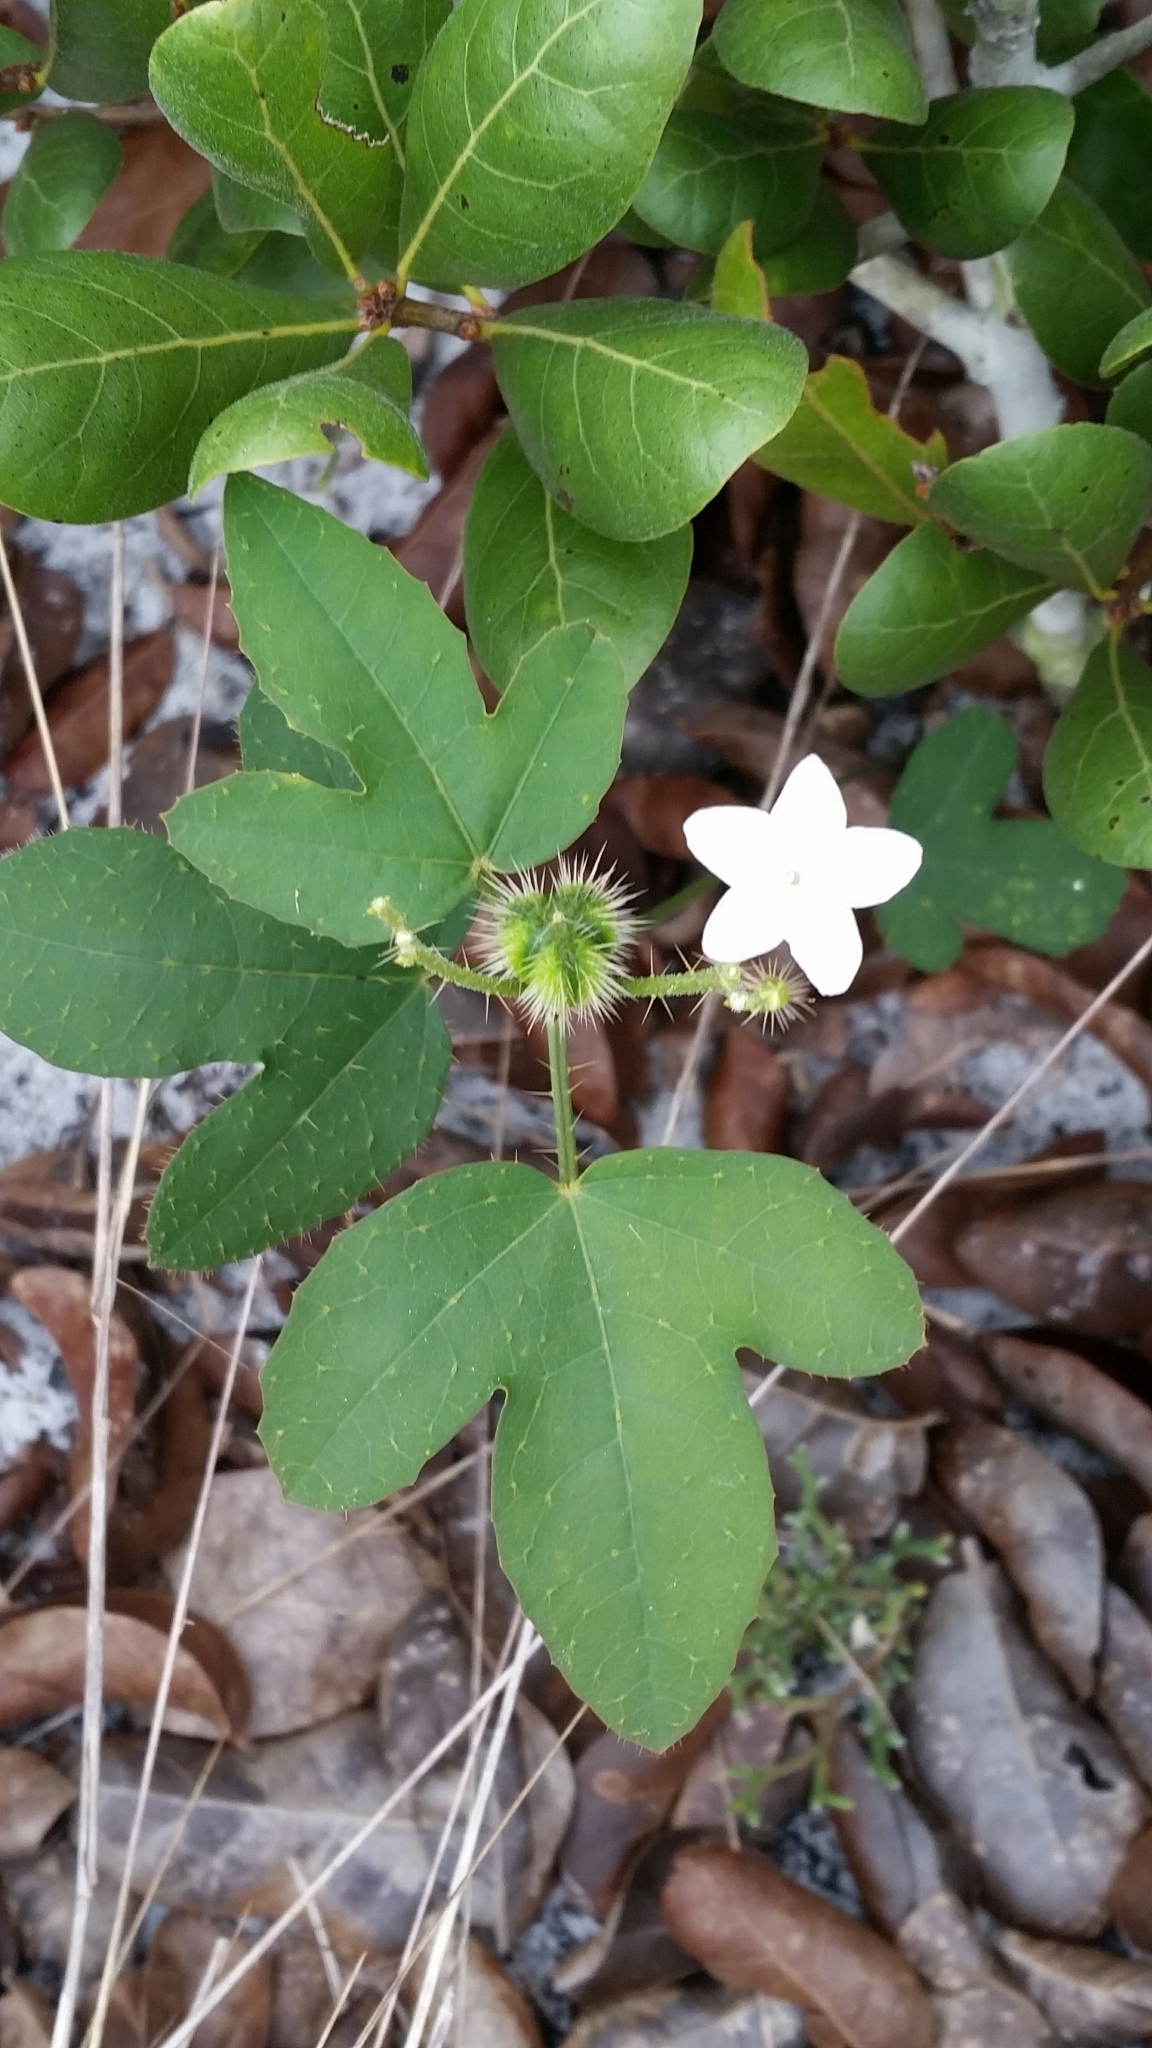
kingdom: Plantae
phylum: Tracheophyta
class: Magnoliopsida
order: Malpighiales
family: Euphorbiaceae
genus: Cnidoscolus
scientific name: Cnidoscolus stimulosus
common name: Bull-nettle
